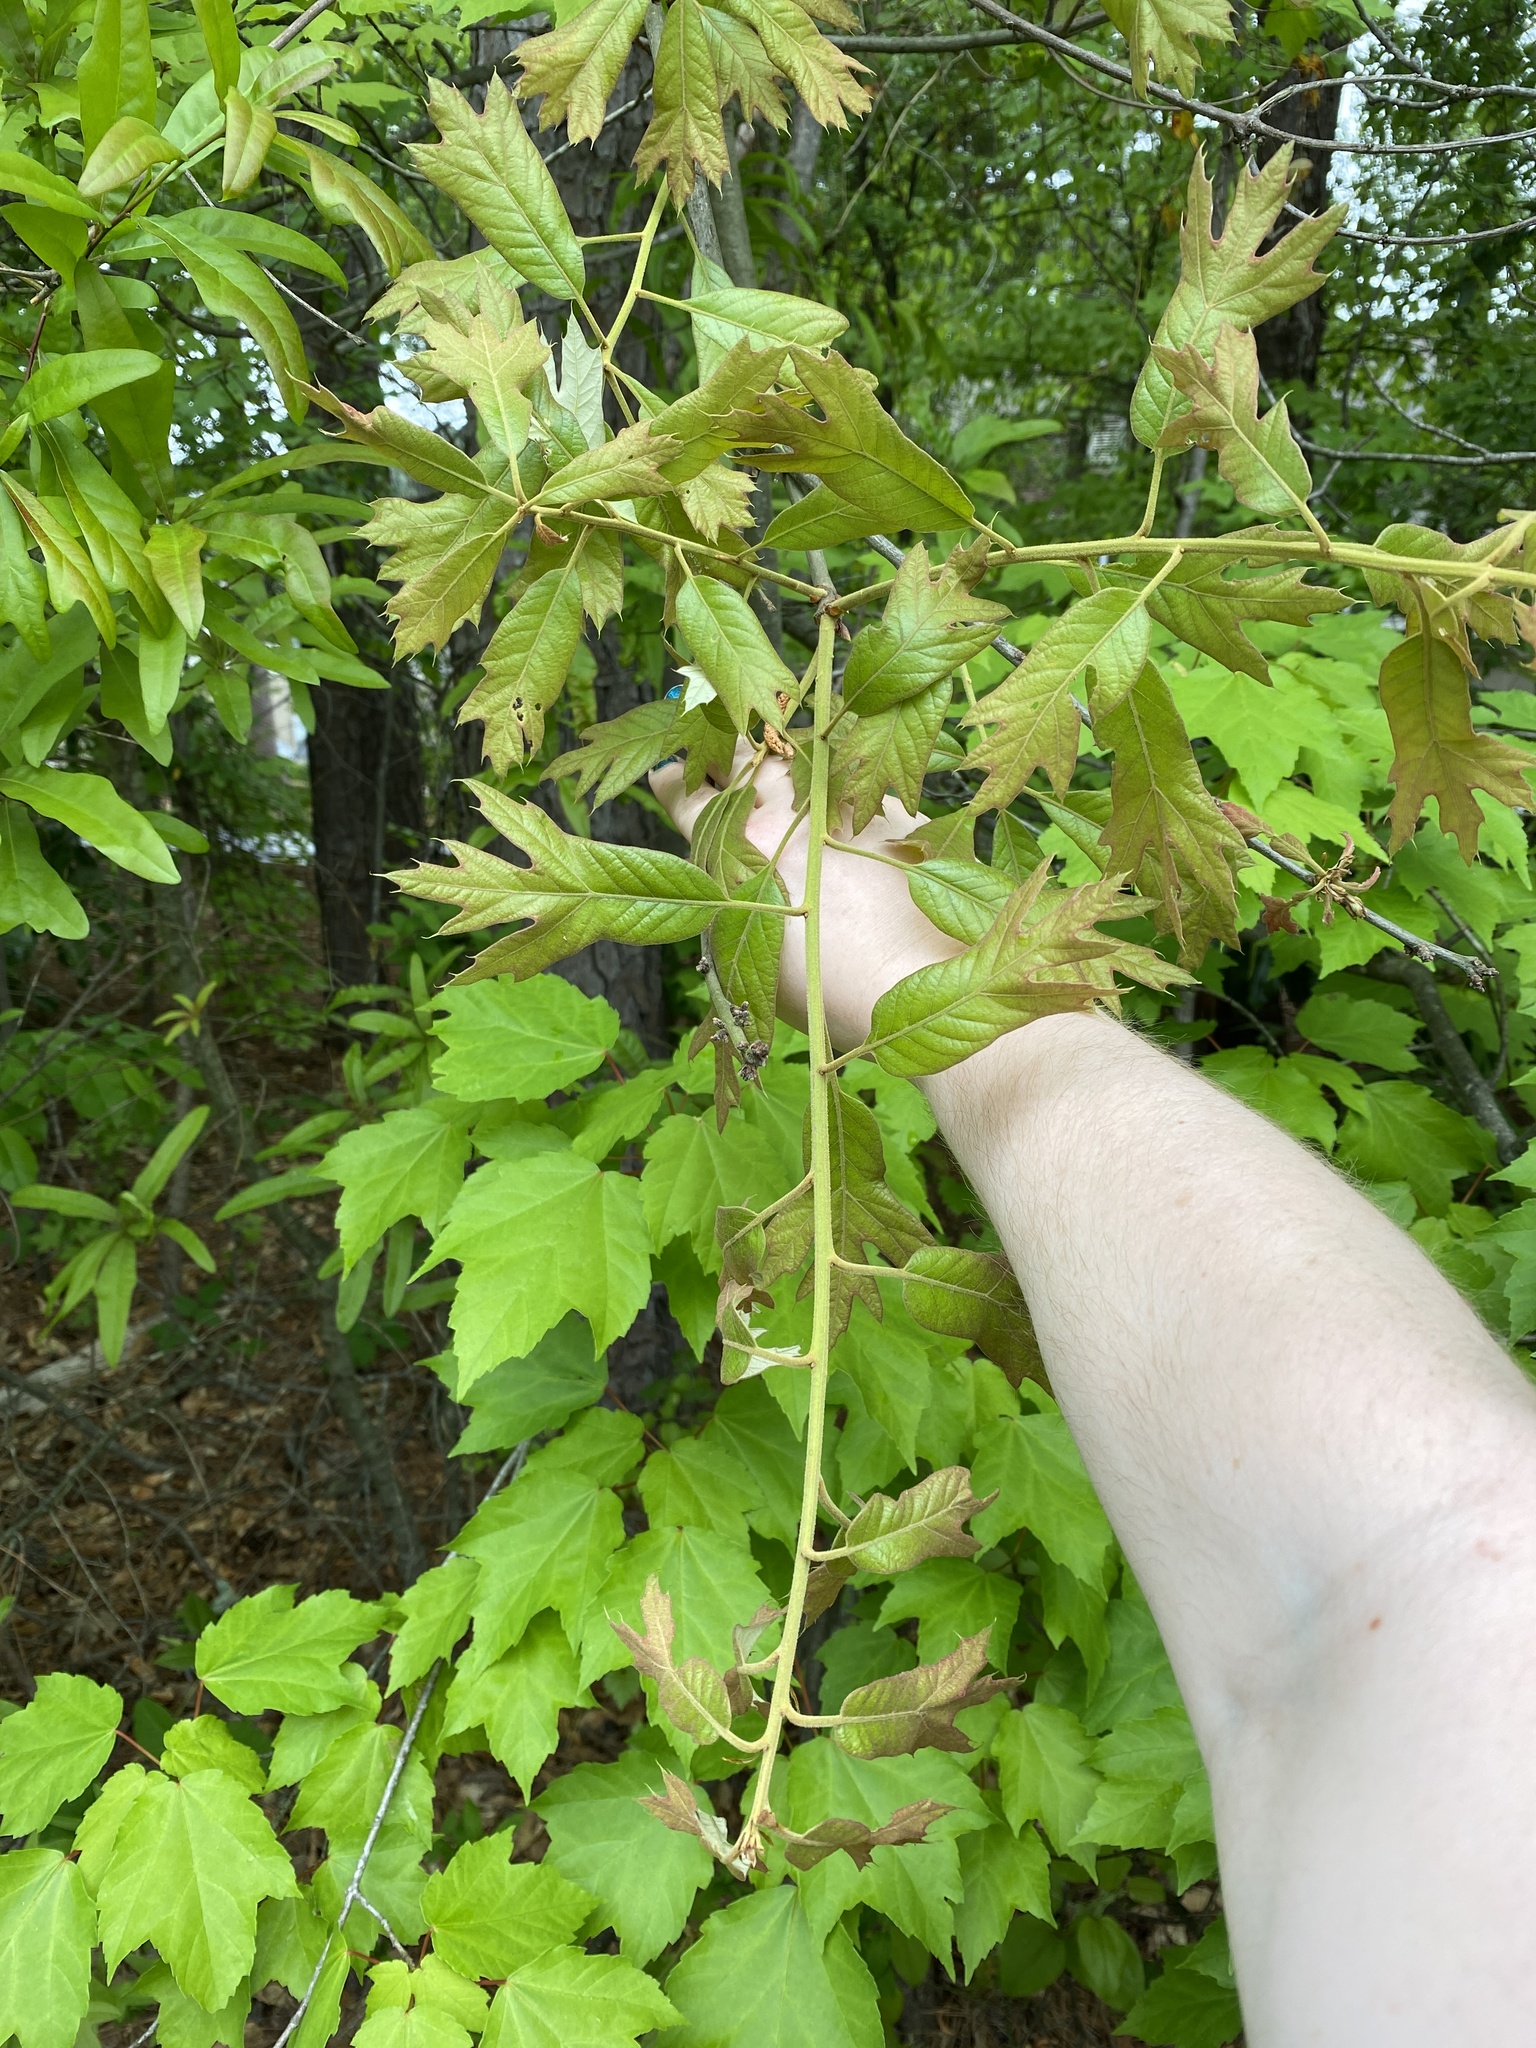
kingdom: Plantae
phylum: Tracheophyta
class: Magnoliopsida
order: Fagales
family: Fagaceae
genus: Quercus
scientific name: Quercus falcata
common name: Southern red oak
